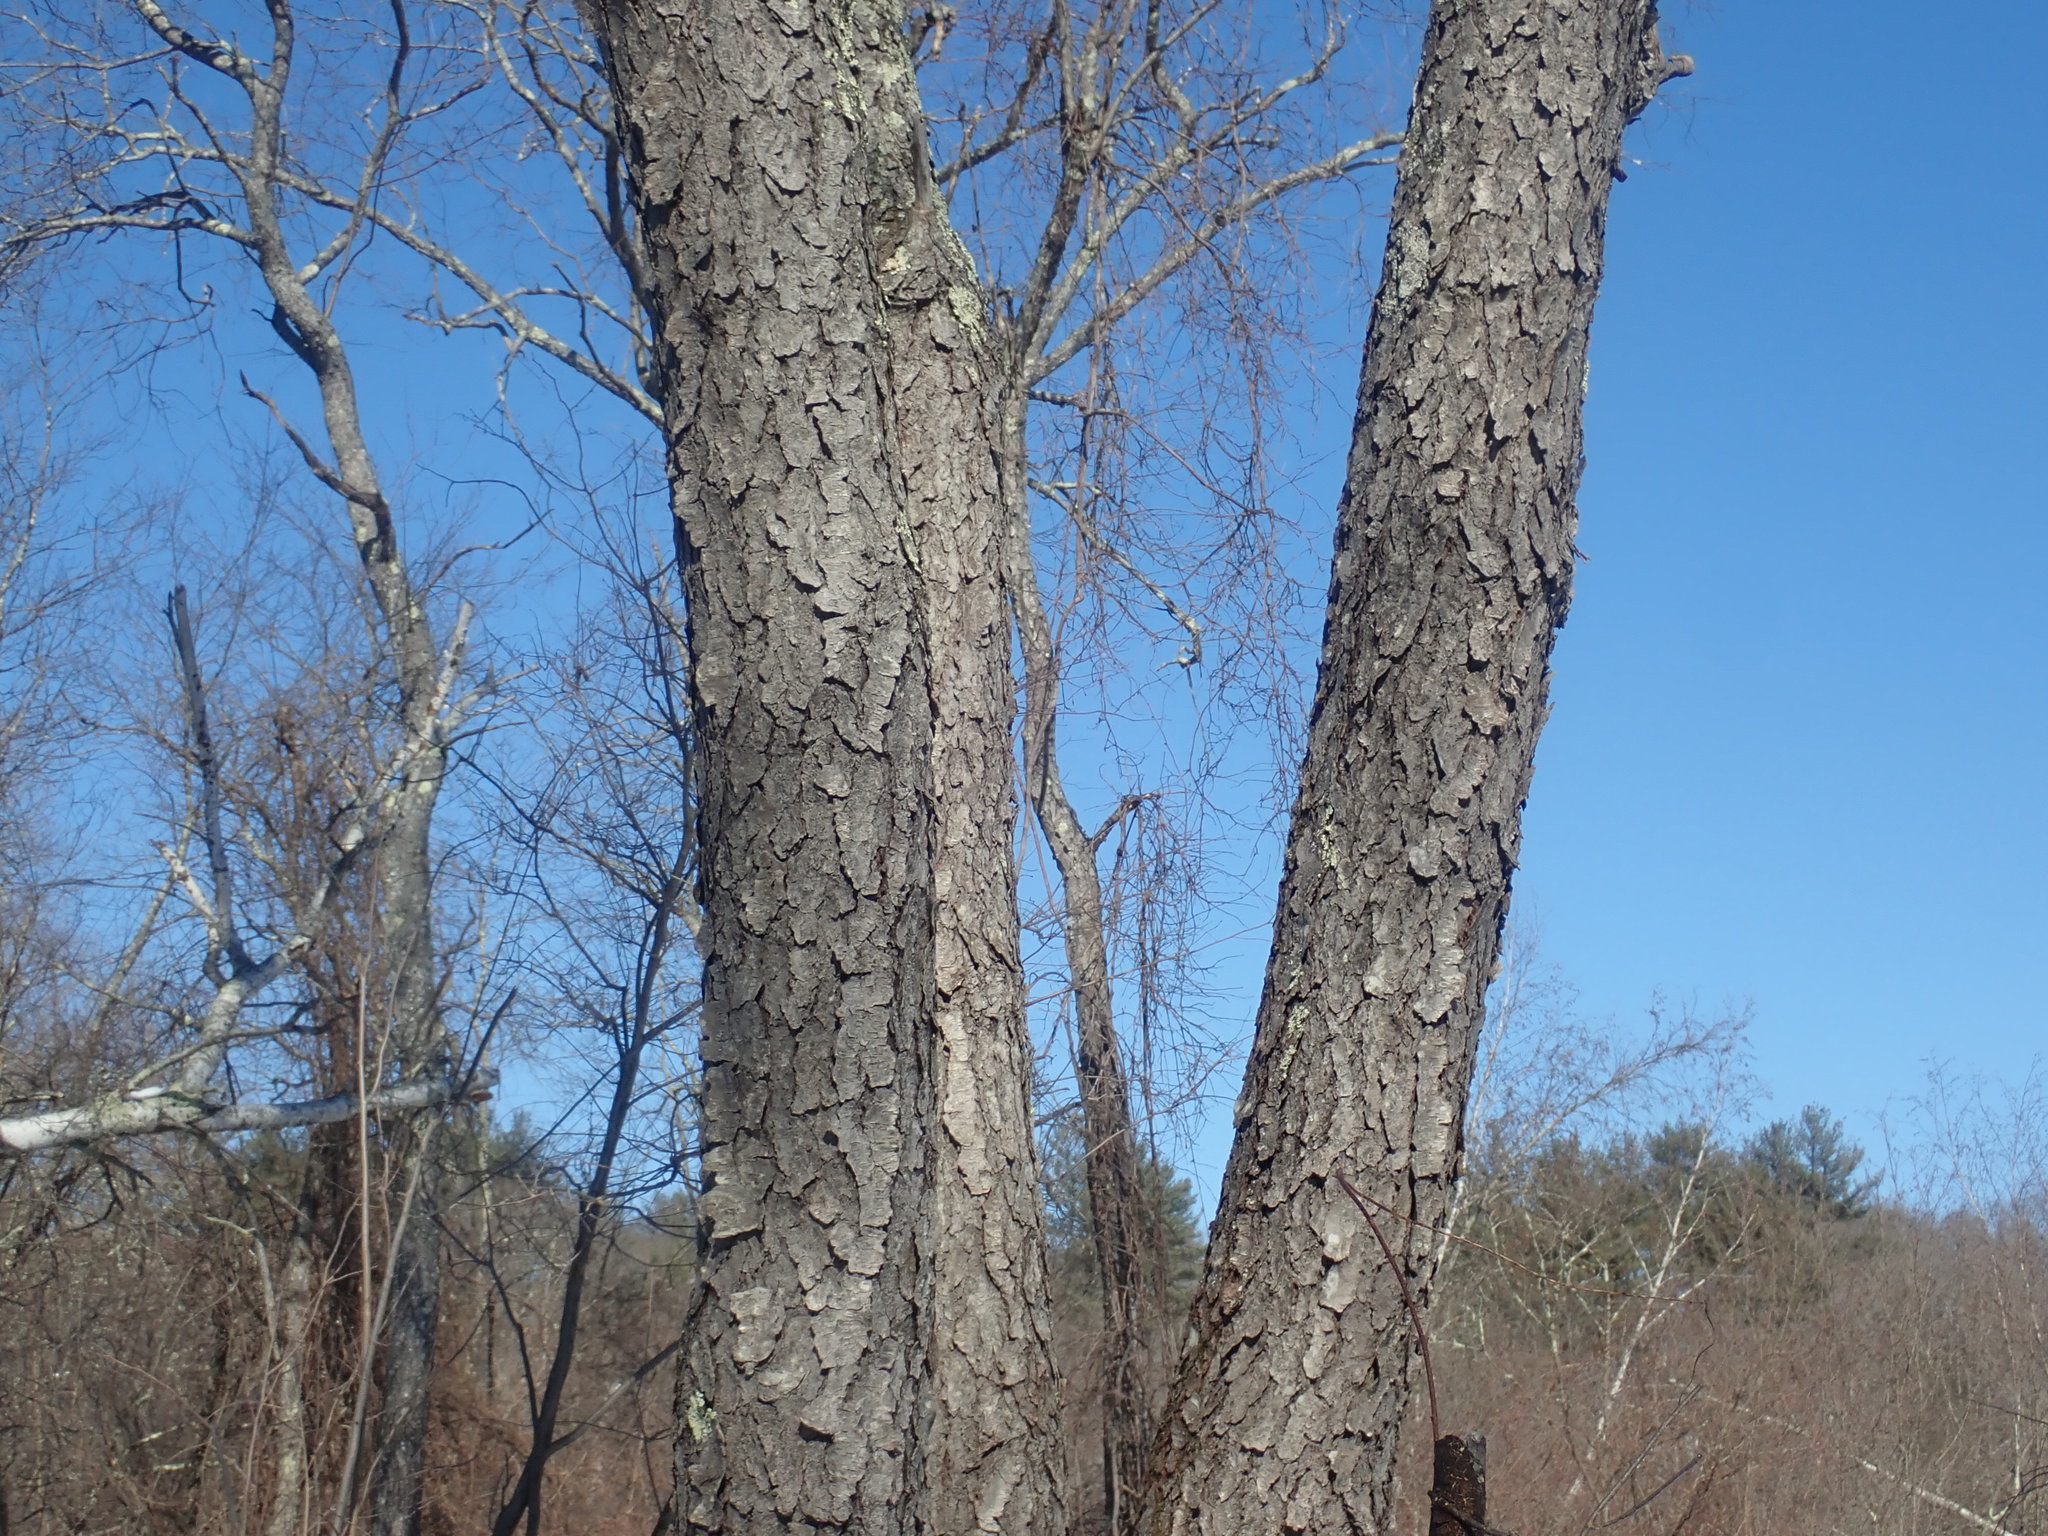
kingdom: Plantae
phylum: Tracheophyta
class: Magnoliopsida
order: Rosales
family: Rosaceae
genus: Prunus
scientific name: Prunus serotina
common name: Black cherry
